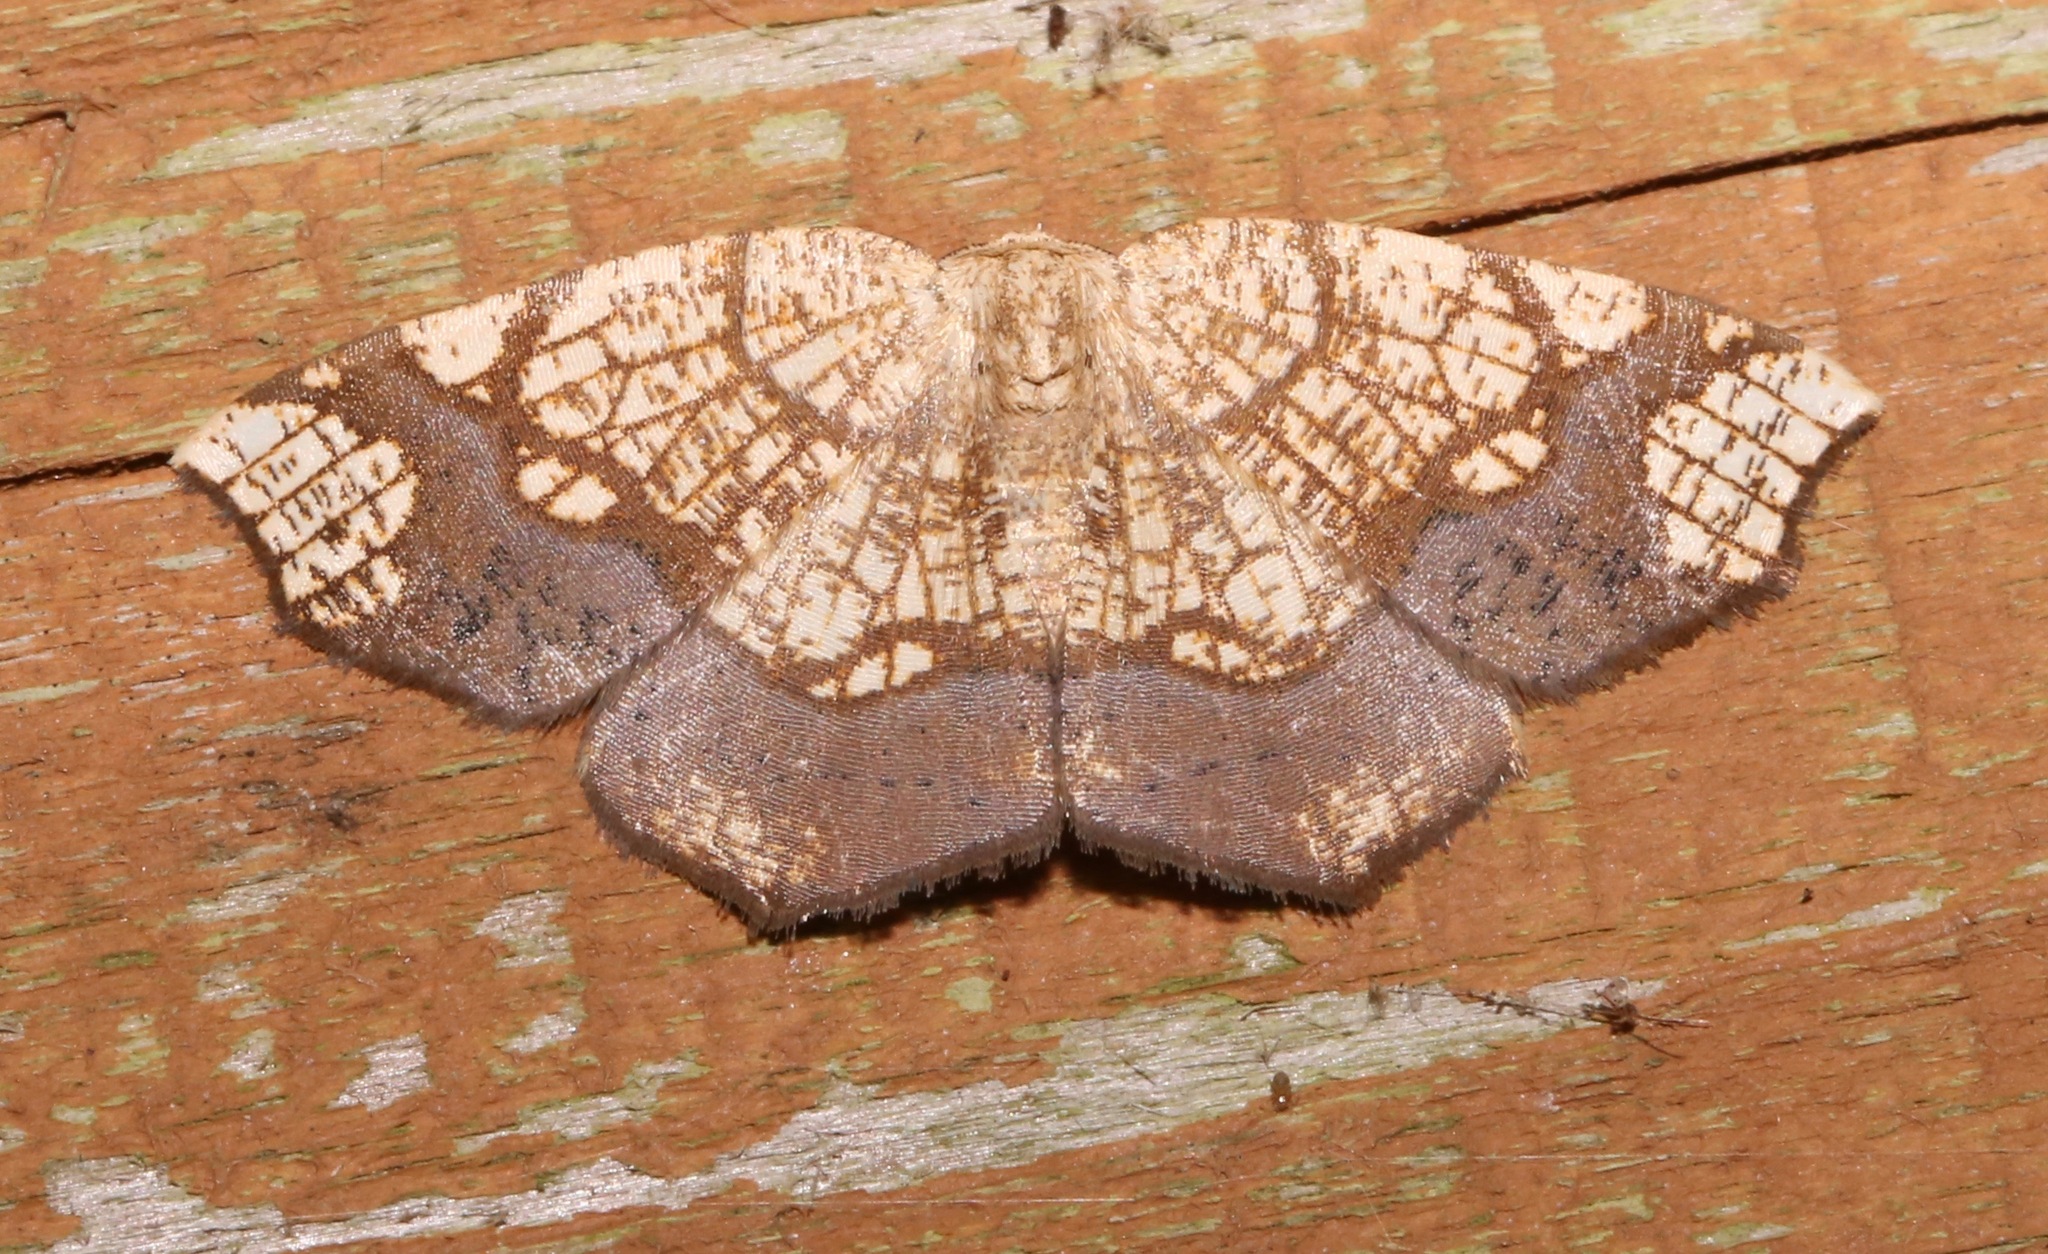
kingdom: Animalia
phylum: Arthropoda
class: Insecta
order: Lepidoptera
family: Geometridae
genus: Nematocampa
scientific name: Nematocampa resistaria
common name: Horned spanworm moth
